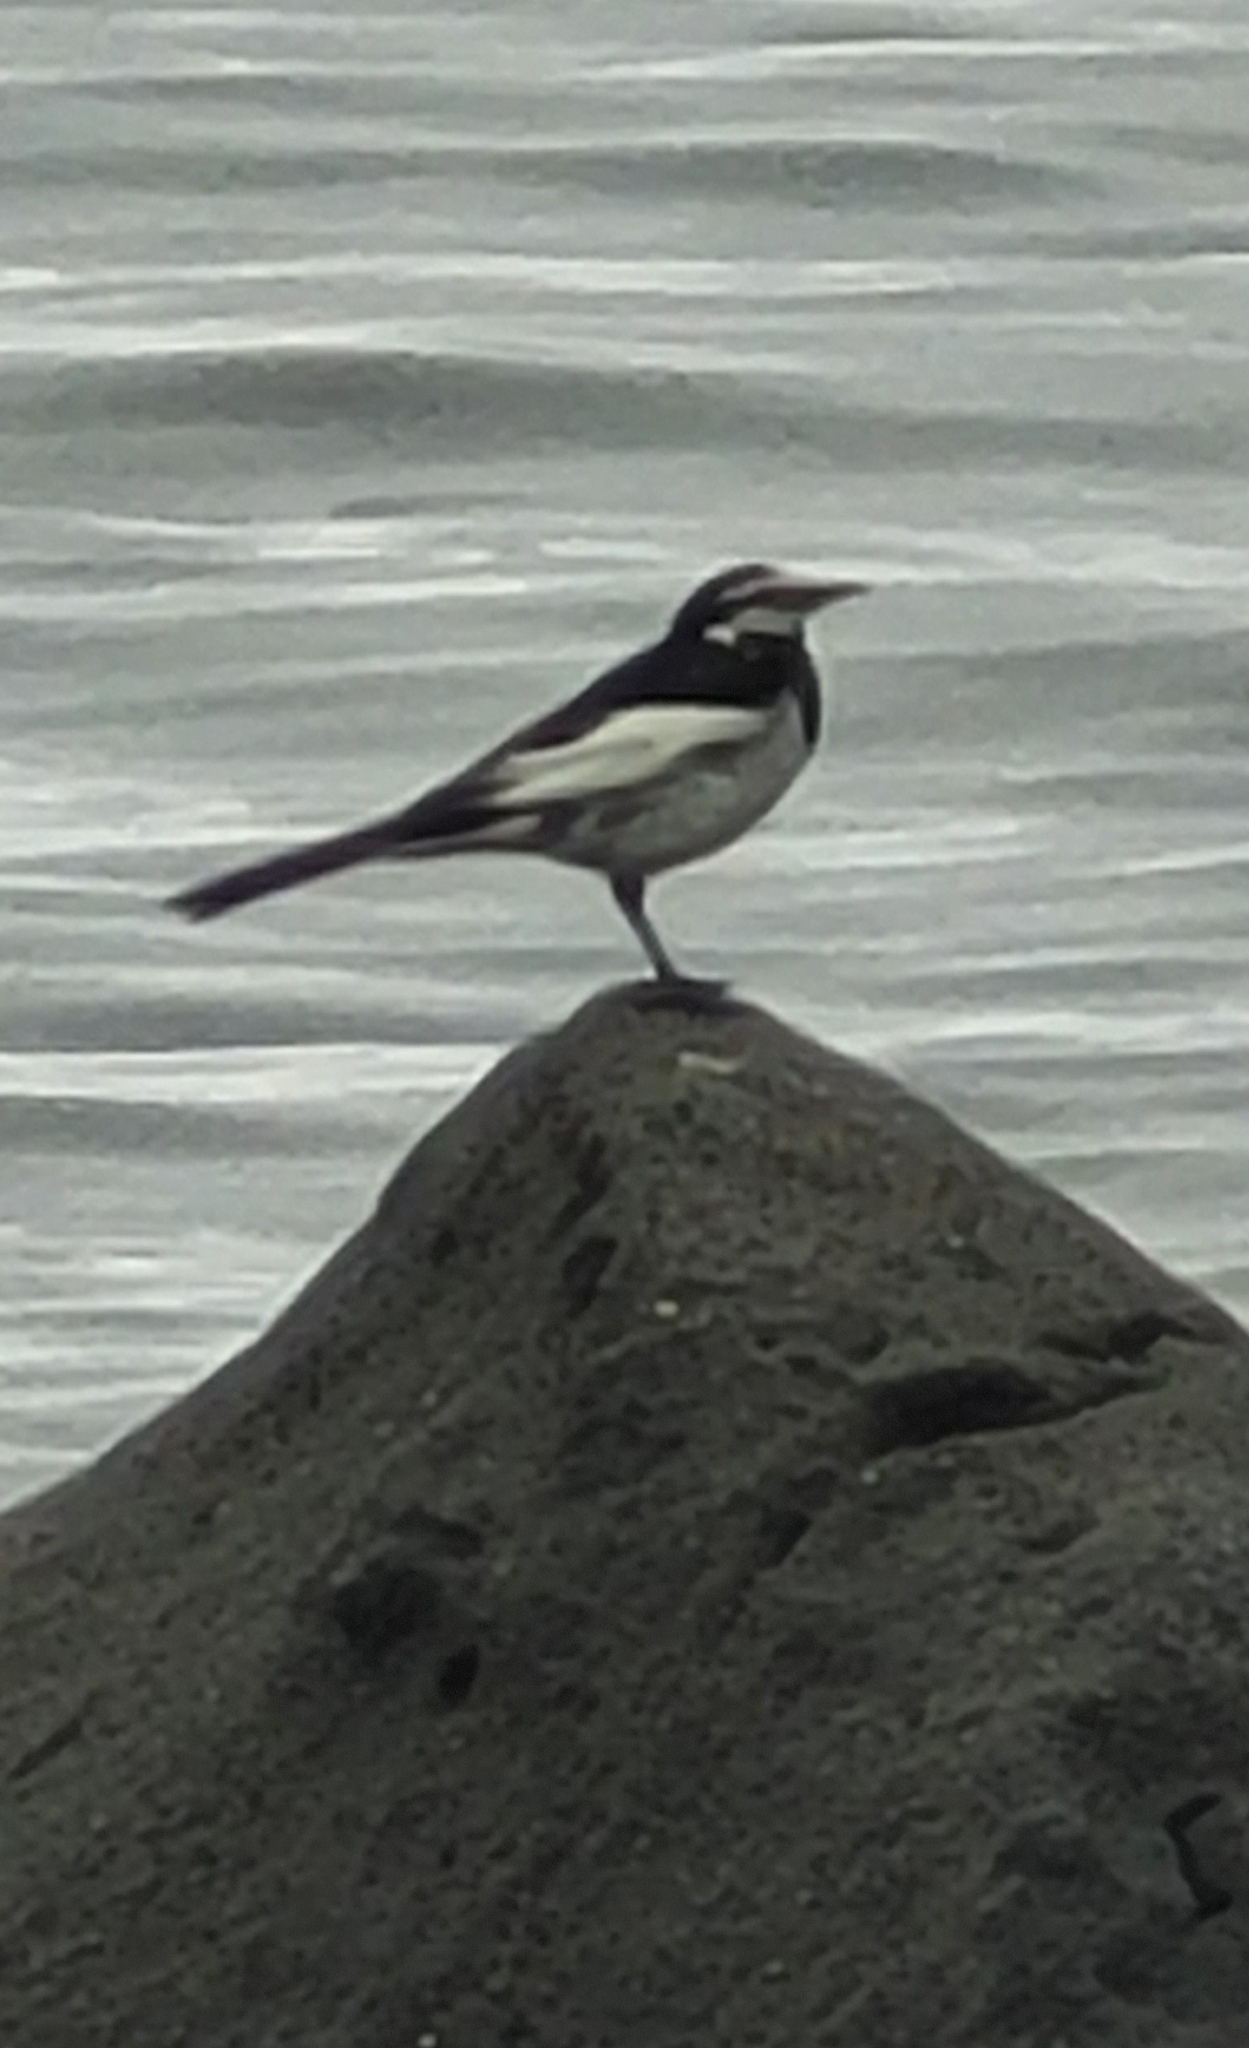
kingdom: Animalia
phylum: Chordata
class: Aves
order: Passeriformes
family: Motacillidae
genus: Motacilla
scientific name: Motacilla alba
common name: White wagtail
